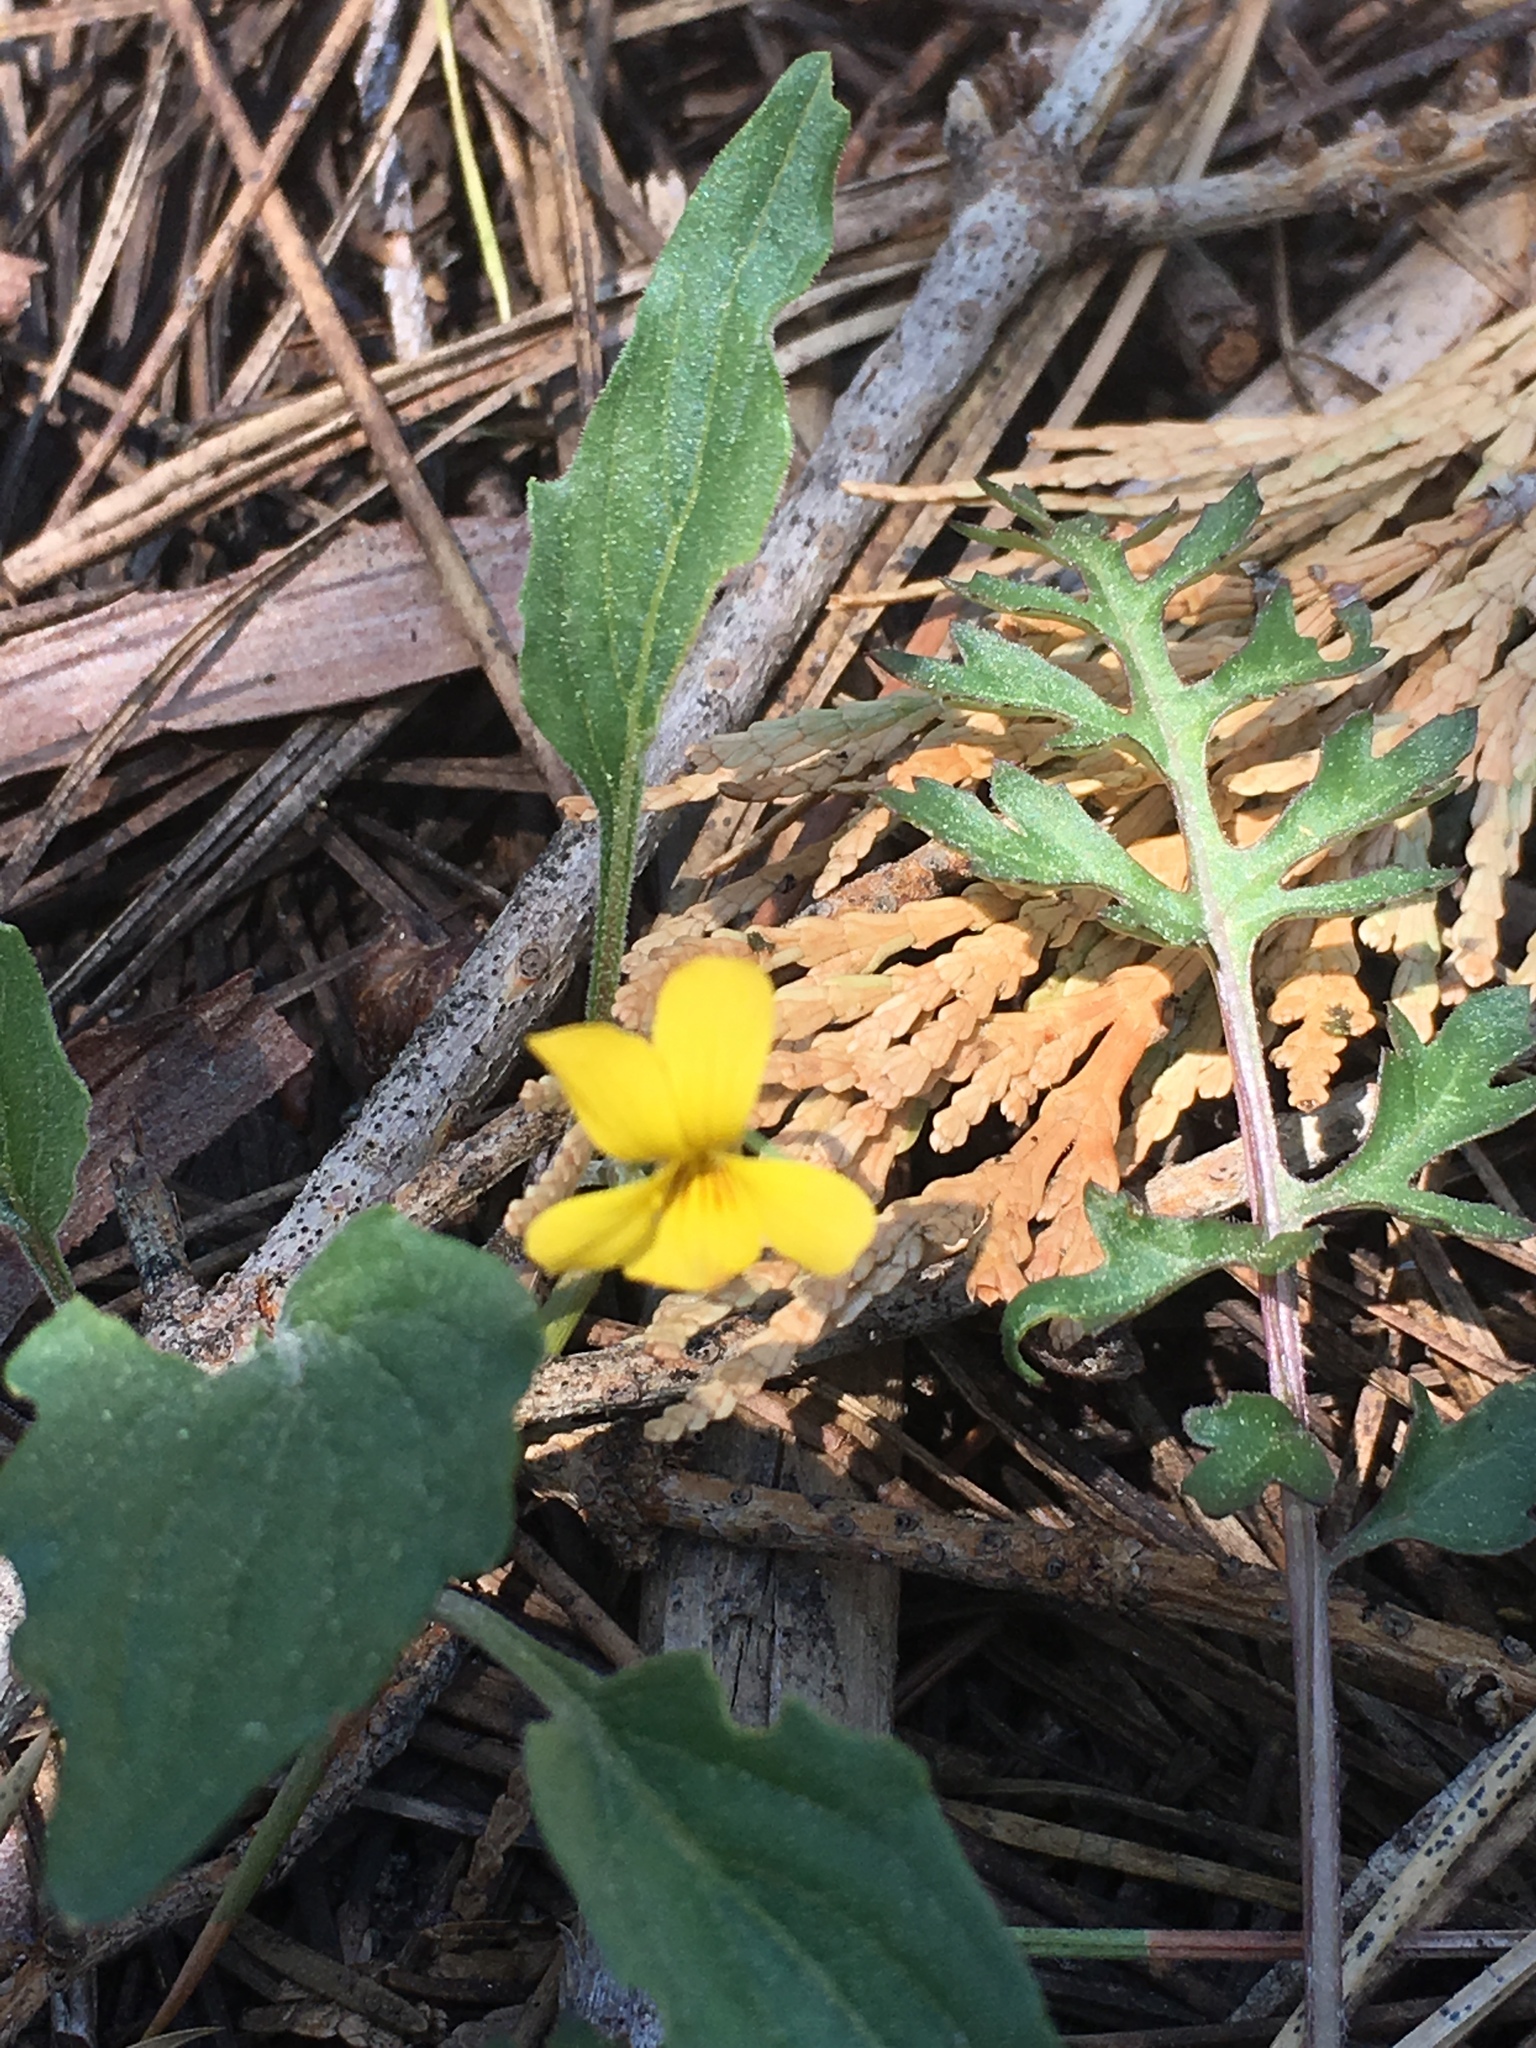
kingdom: Plantae
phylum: Tracheophyta
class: Magnoliopsida
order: Malpighiales
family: Violaceae
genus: Viola
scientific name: Viola pinetorum
